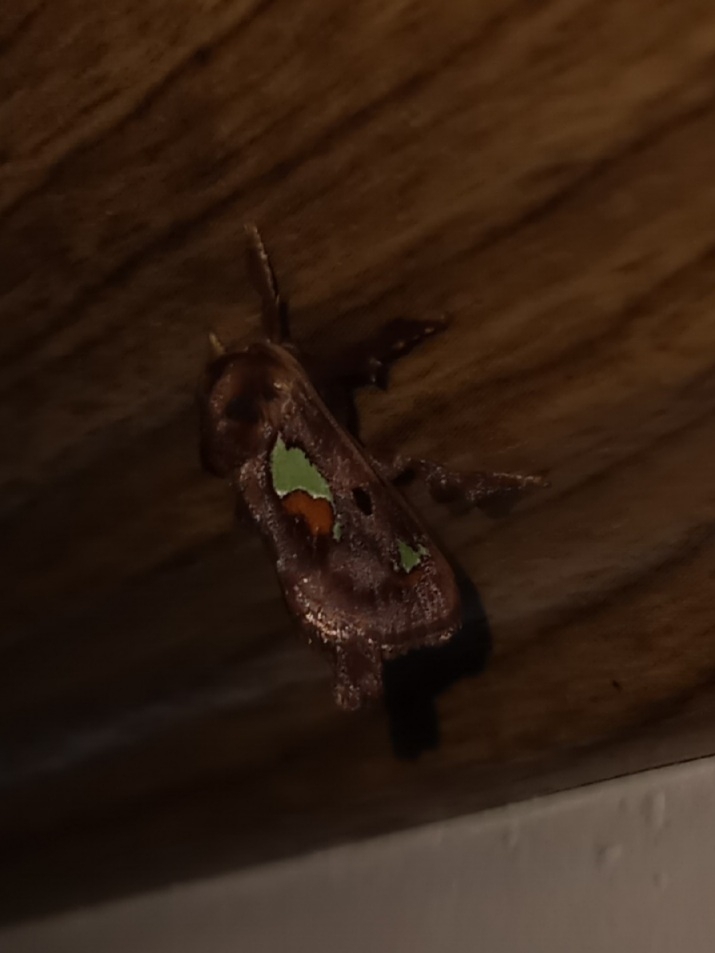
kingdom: Animalia
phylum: Arthropoda
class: Insecta
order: Lepidoptera
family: Limacodidae
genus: Euclea
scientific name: Euclea delphinii
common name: Spiny oak-slug moth
